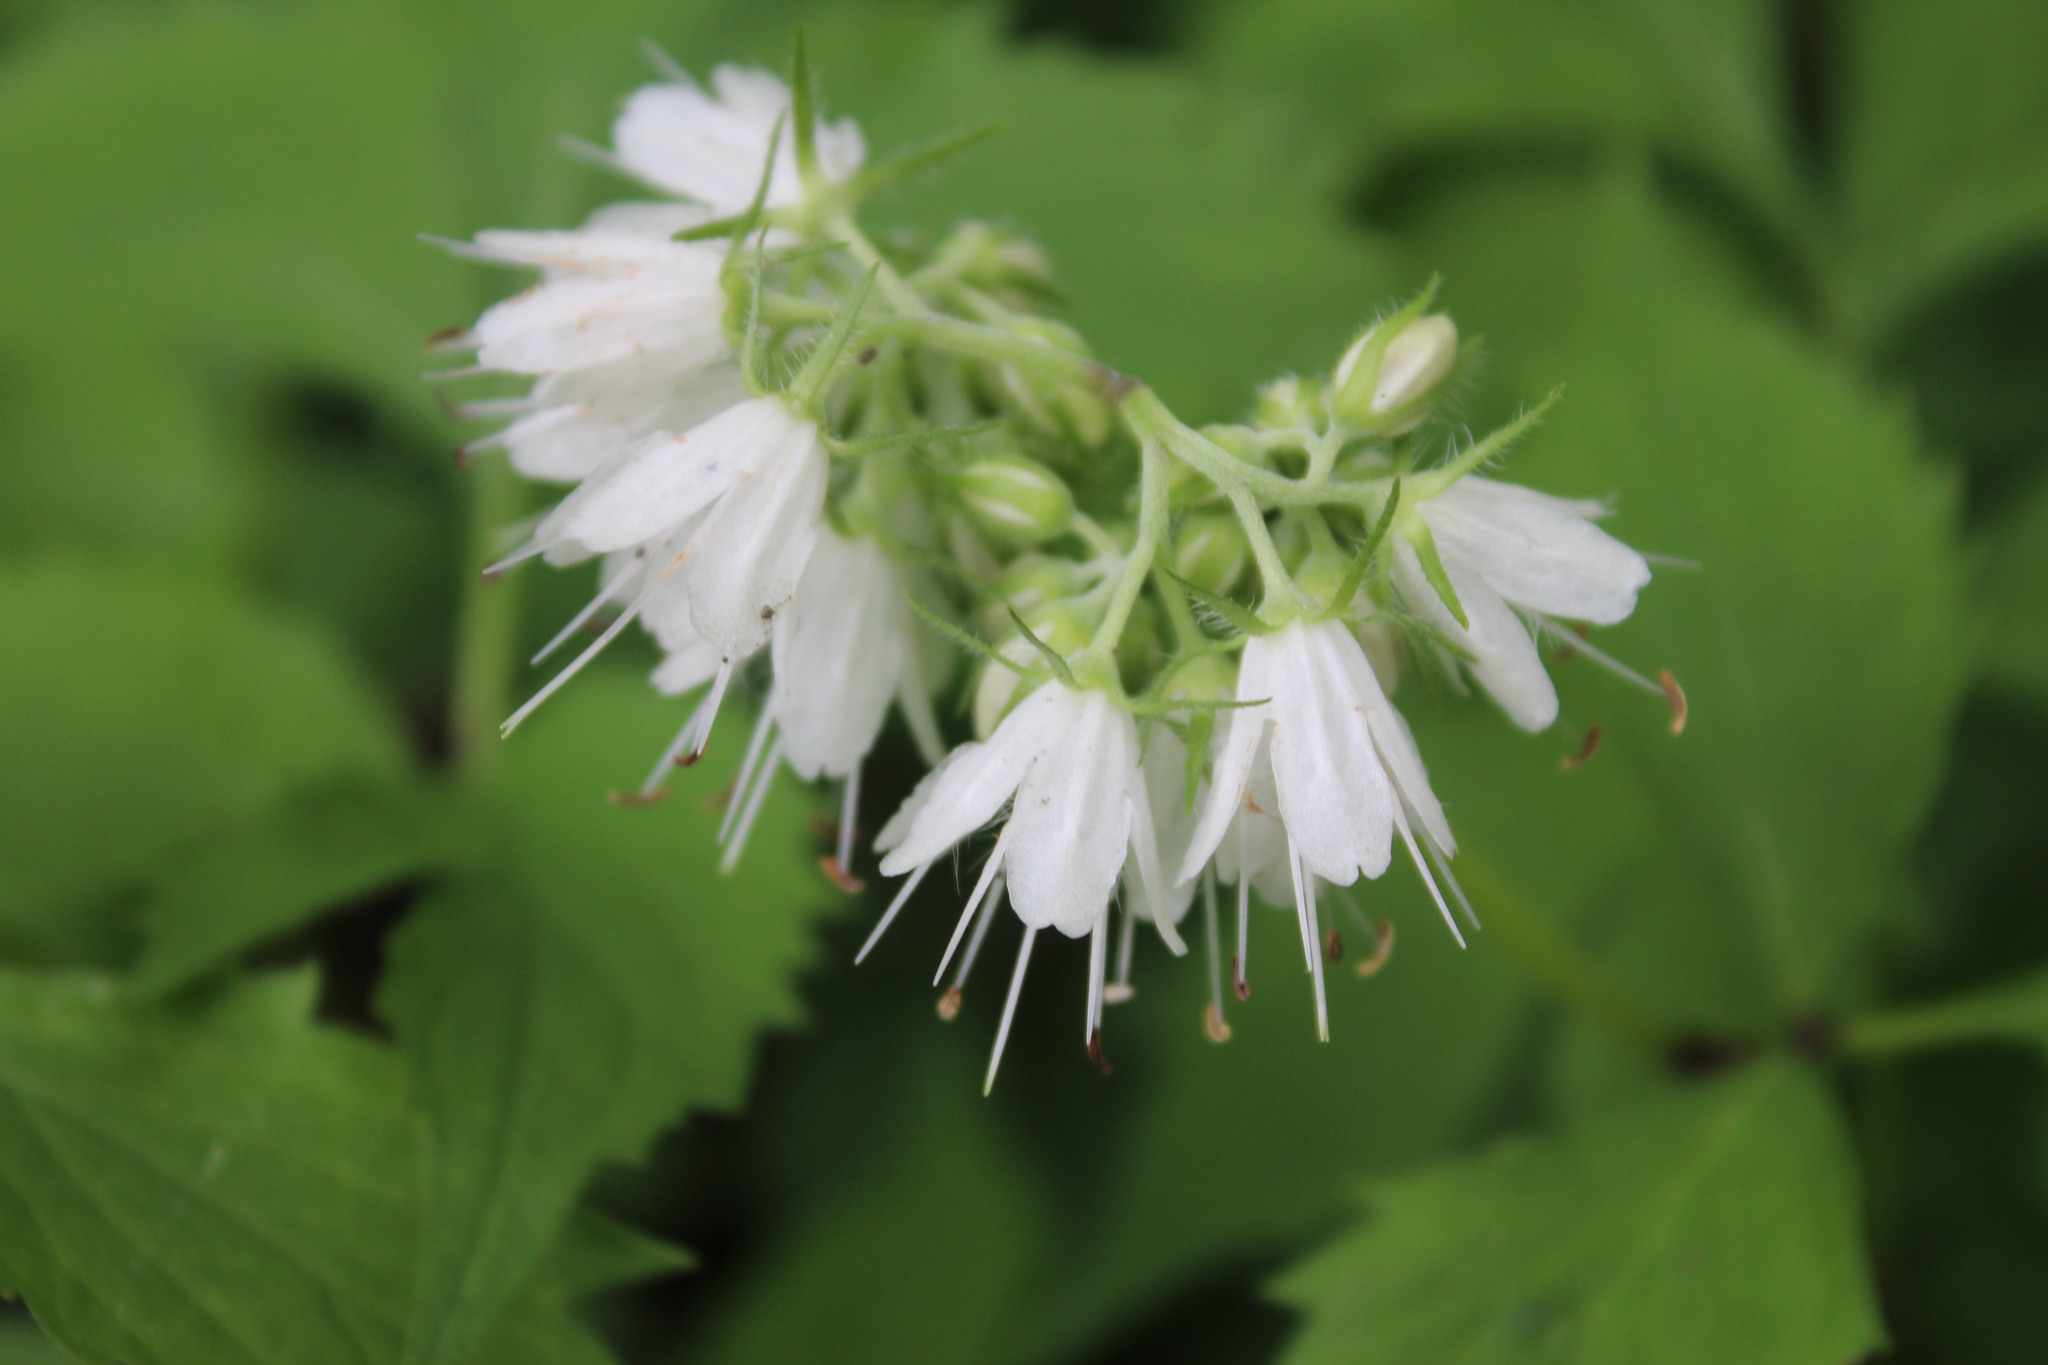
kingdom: Plantae
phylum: Tracheophyta
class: Magnoliopsida
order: Boraginales
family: Hydrophyllaceae
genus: Hydrophyllum
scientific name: Hydrophyllum virginianum
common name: Virginia waterleaf
